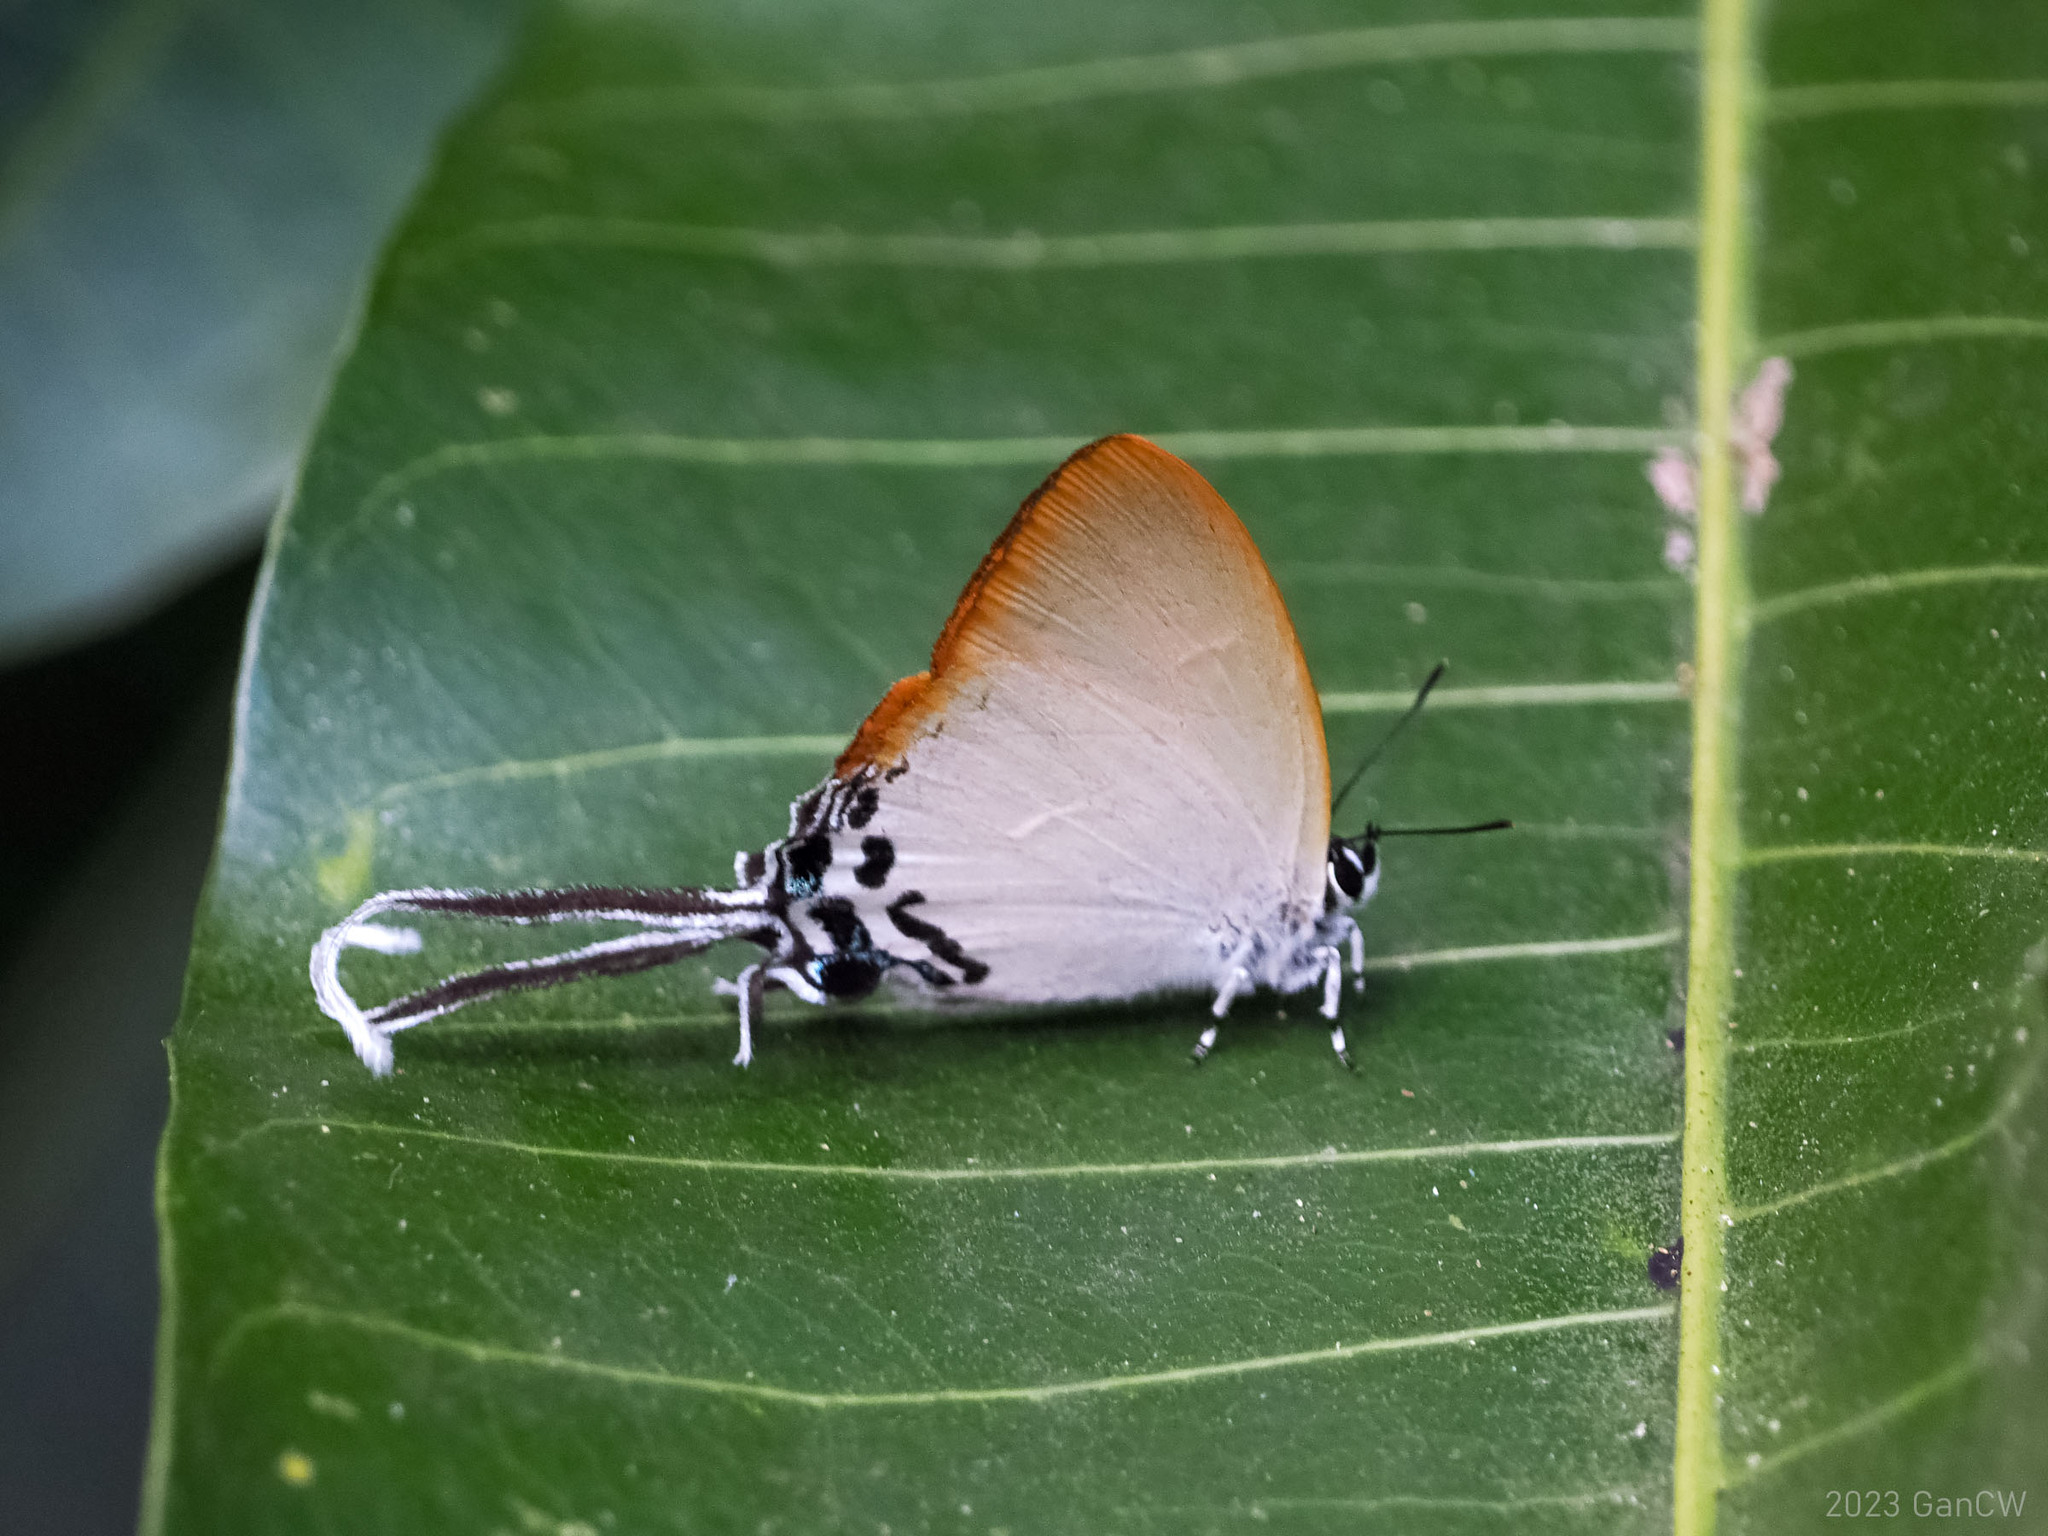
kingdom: Animalia
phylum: Arthropoda
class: Insecta
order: Lepidoptera
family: Lycaenidae
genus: Cheritra
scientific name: Cheritra orpheus
